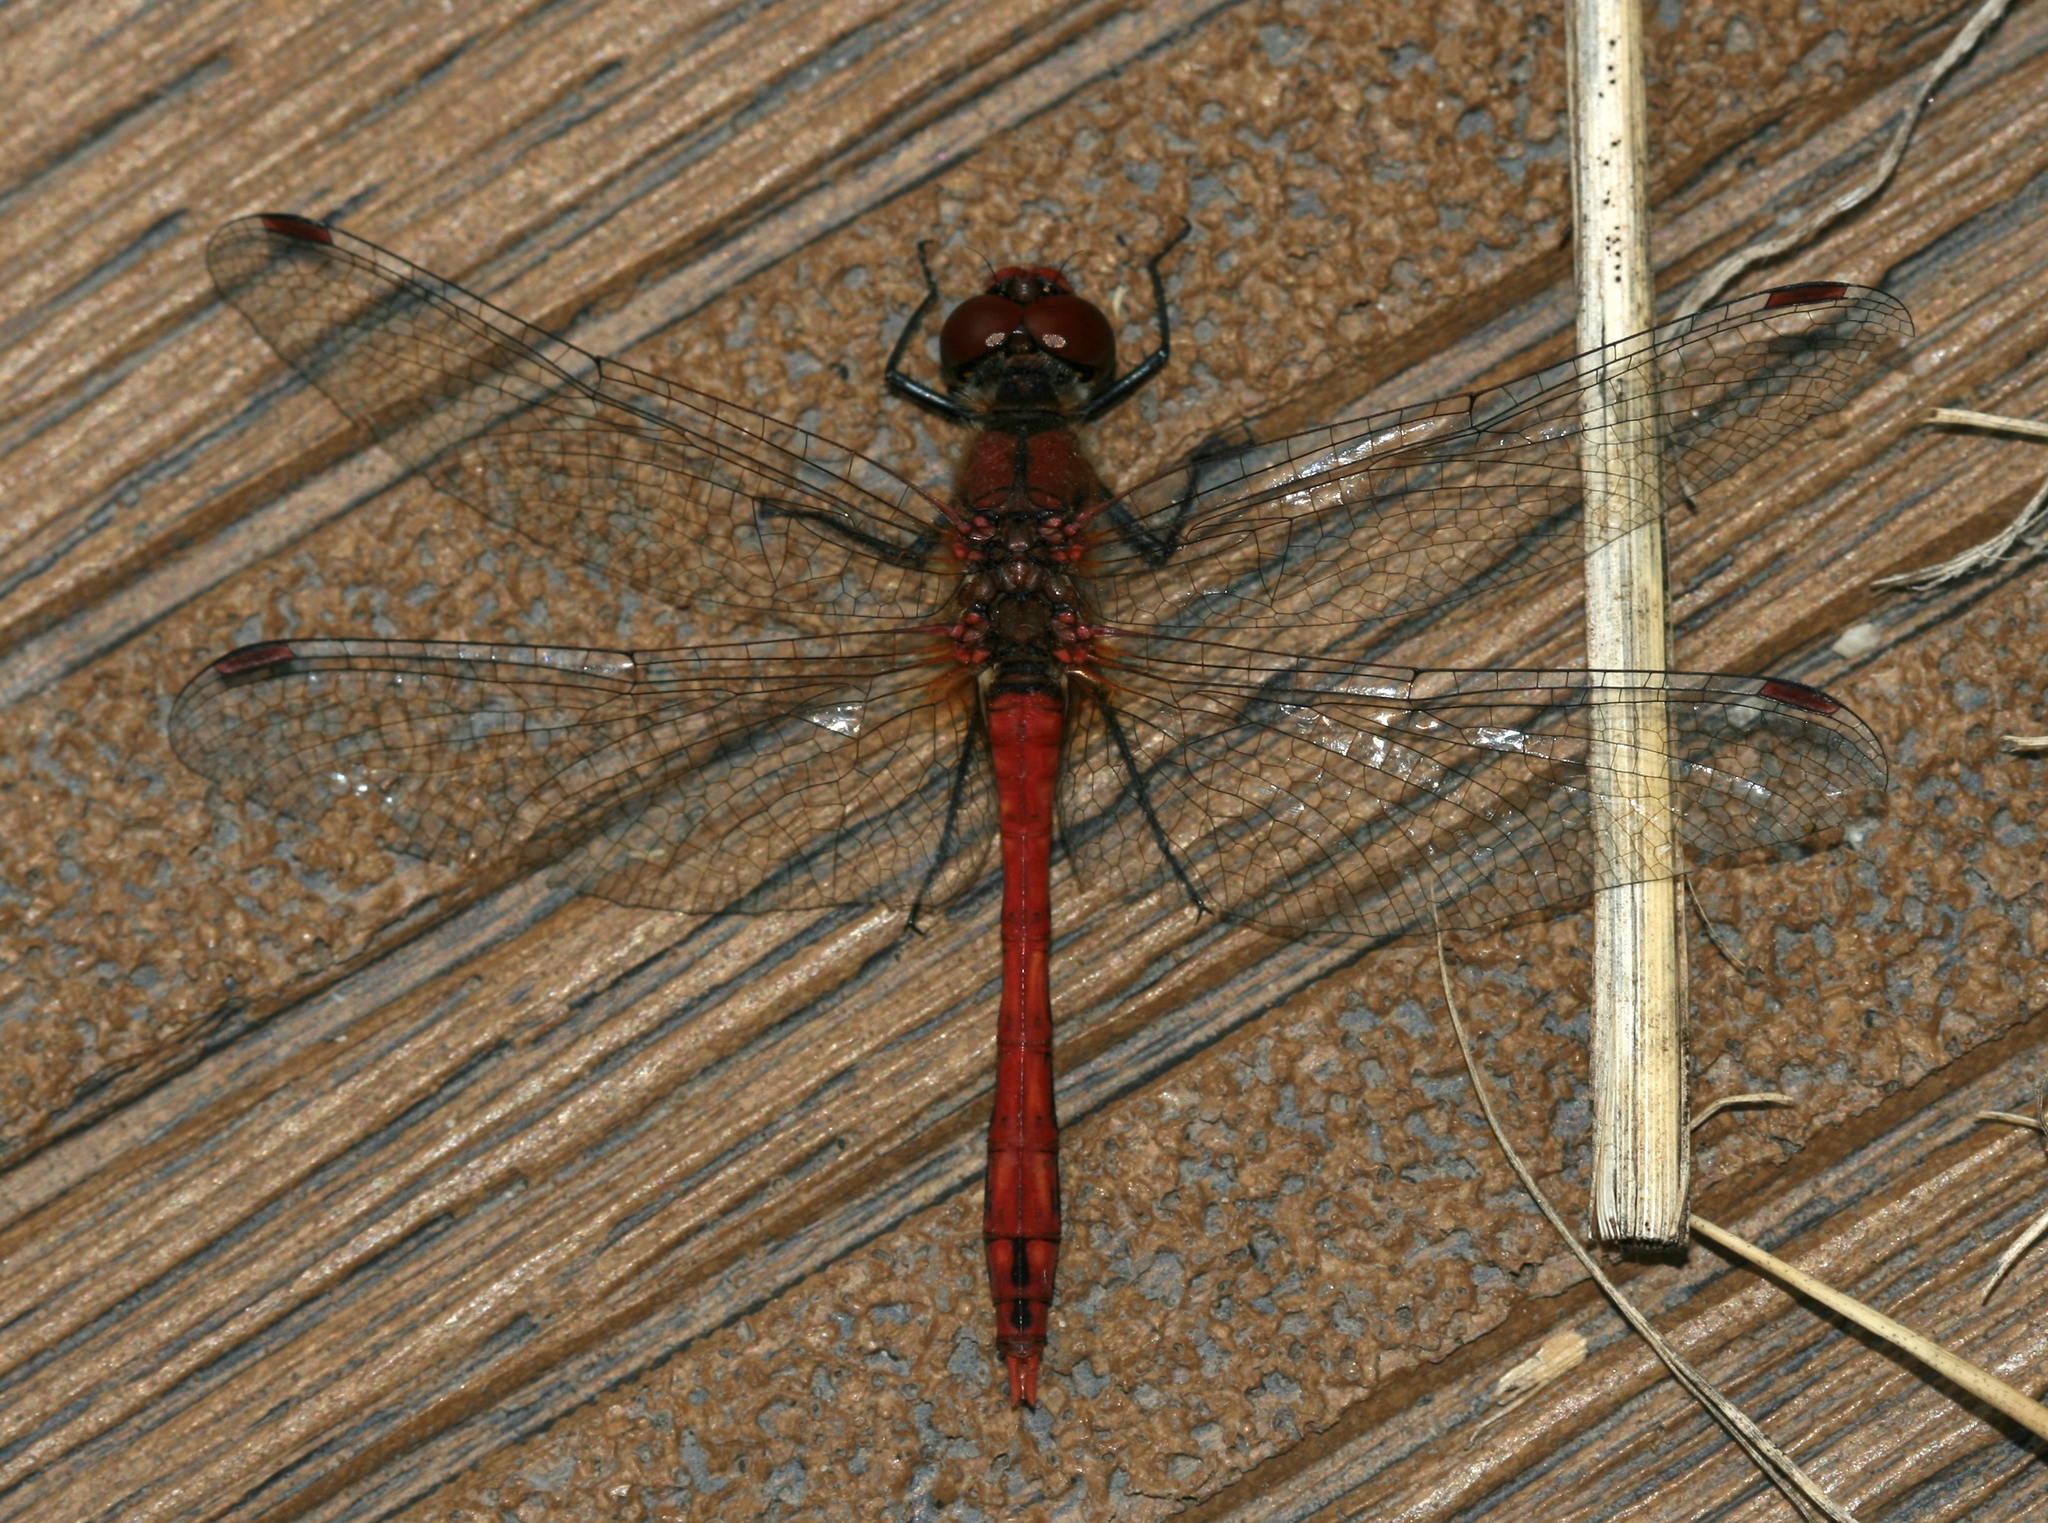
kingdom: Animalia
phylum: Arthropoda
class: Insecta
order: Odonata
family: Libellulidae
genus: Sympetrum
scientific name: Sympetrum sanguineum
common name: Ruddy darter
